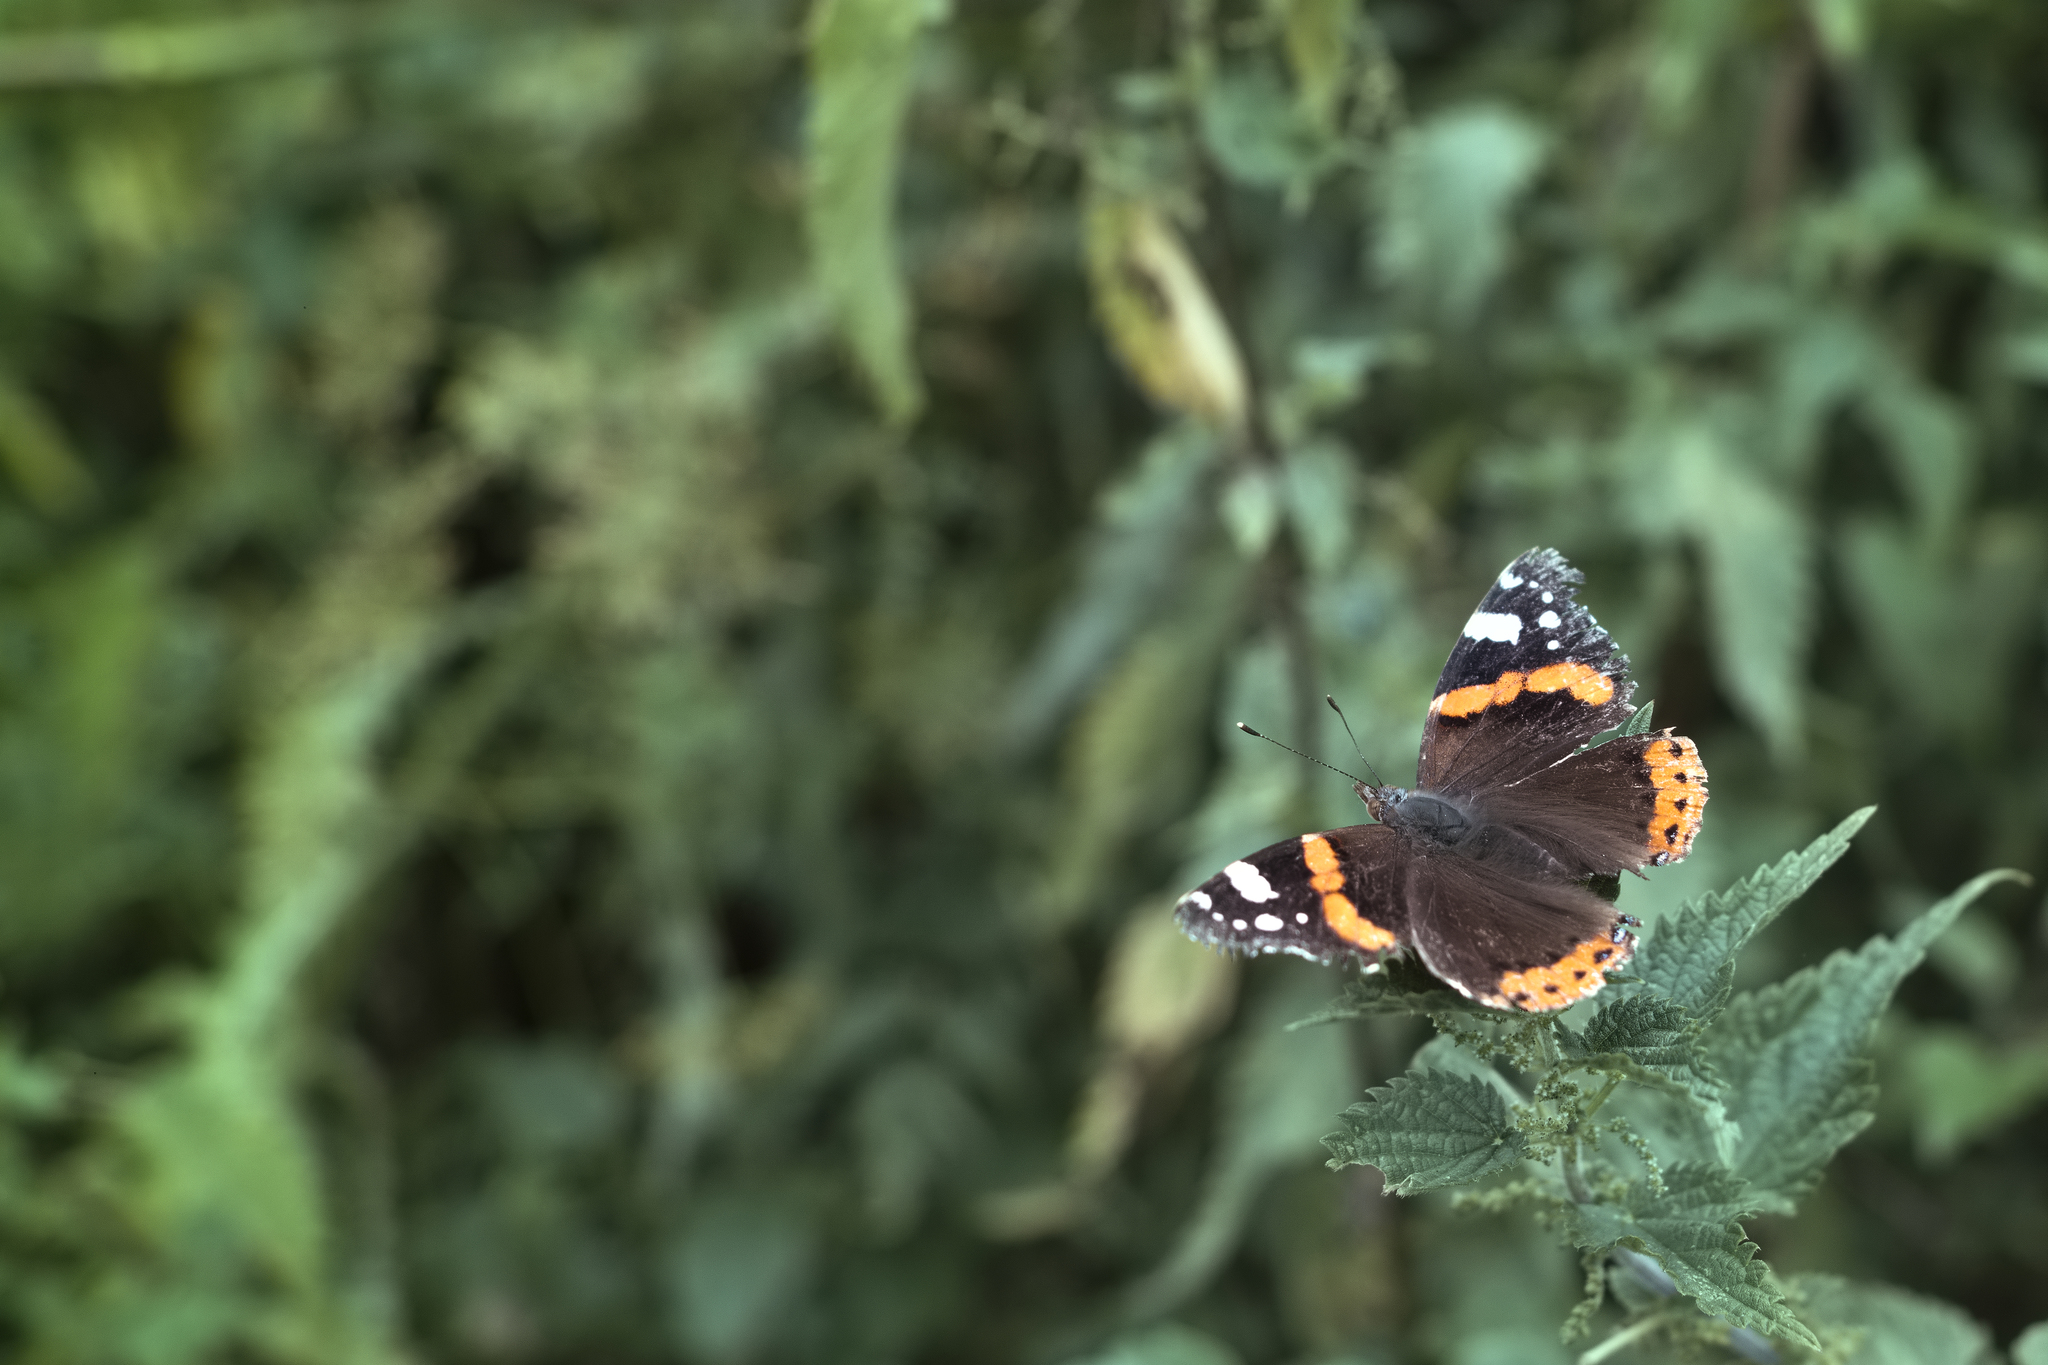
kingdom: Plantae
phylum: Tracheophyta
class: Magnoliopsida
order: Rosales
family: Urticaceae
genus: Urtica
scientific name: Urtica dioica
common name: Common nettle
